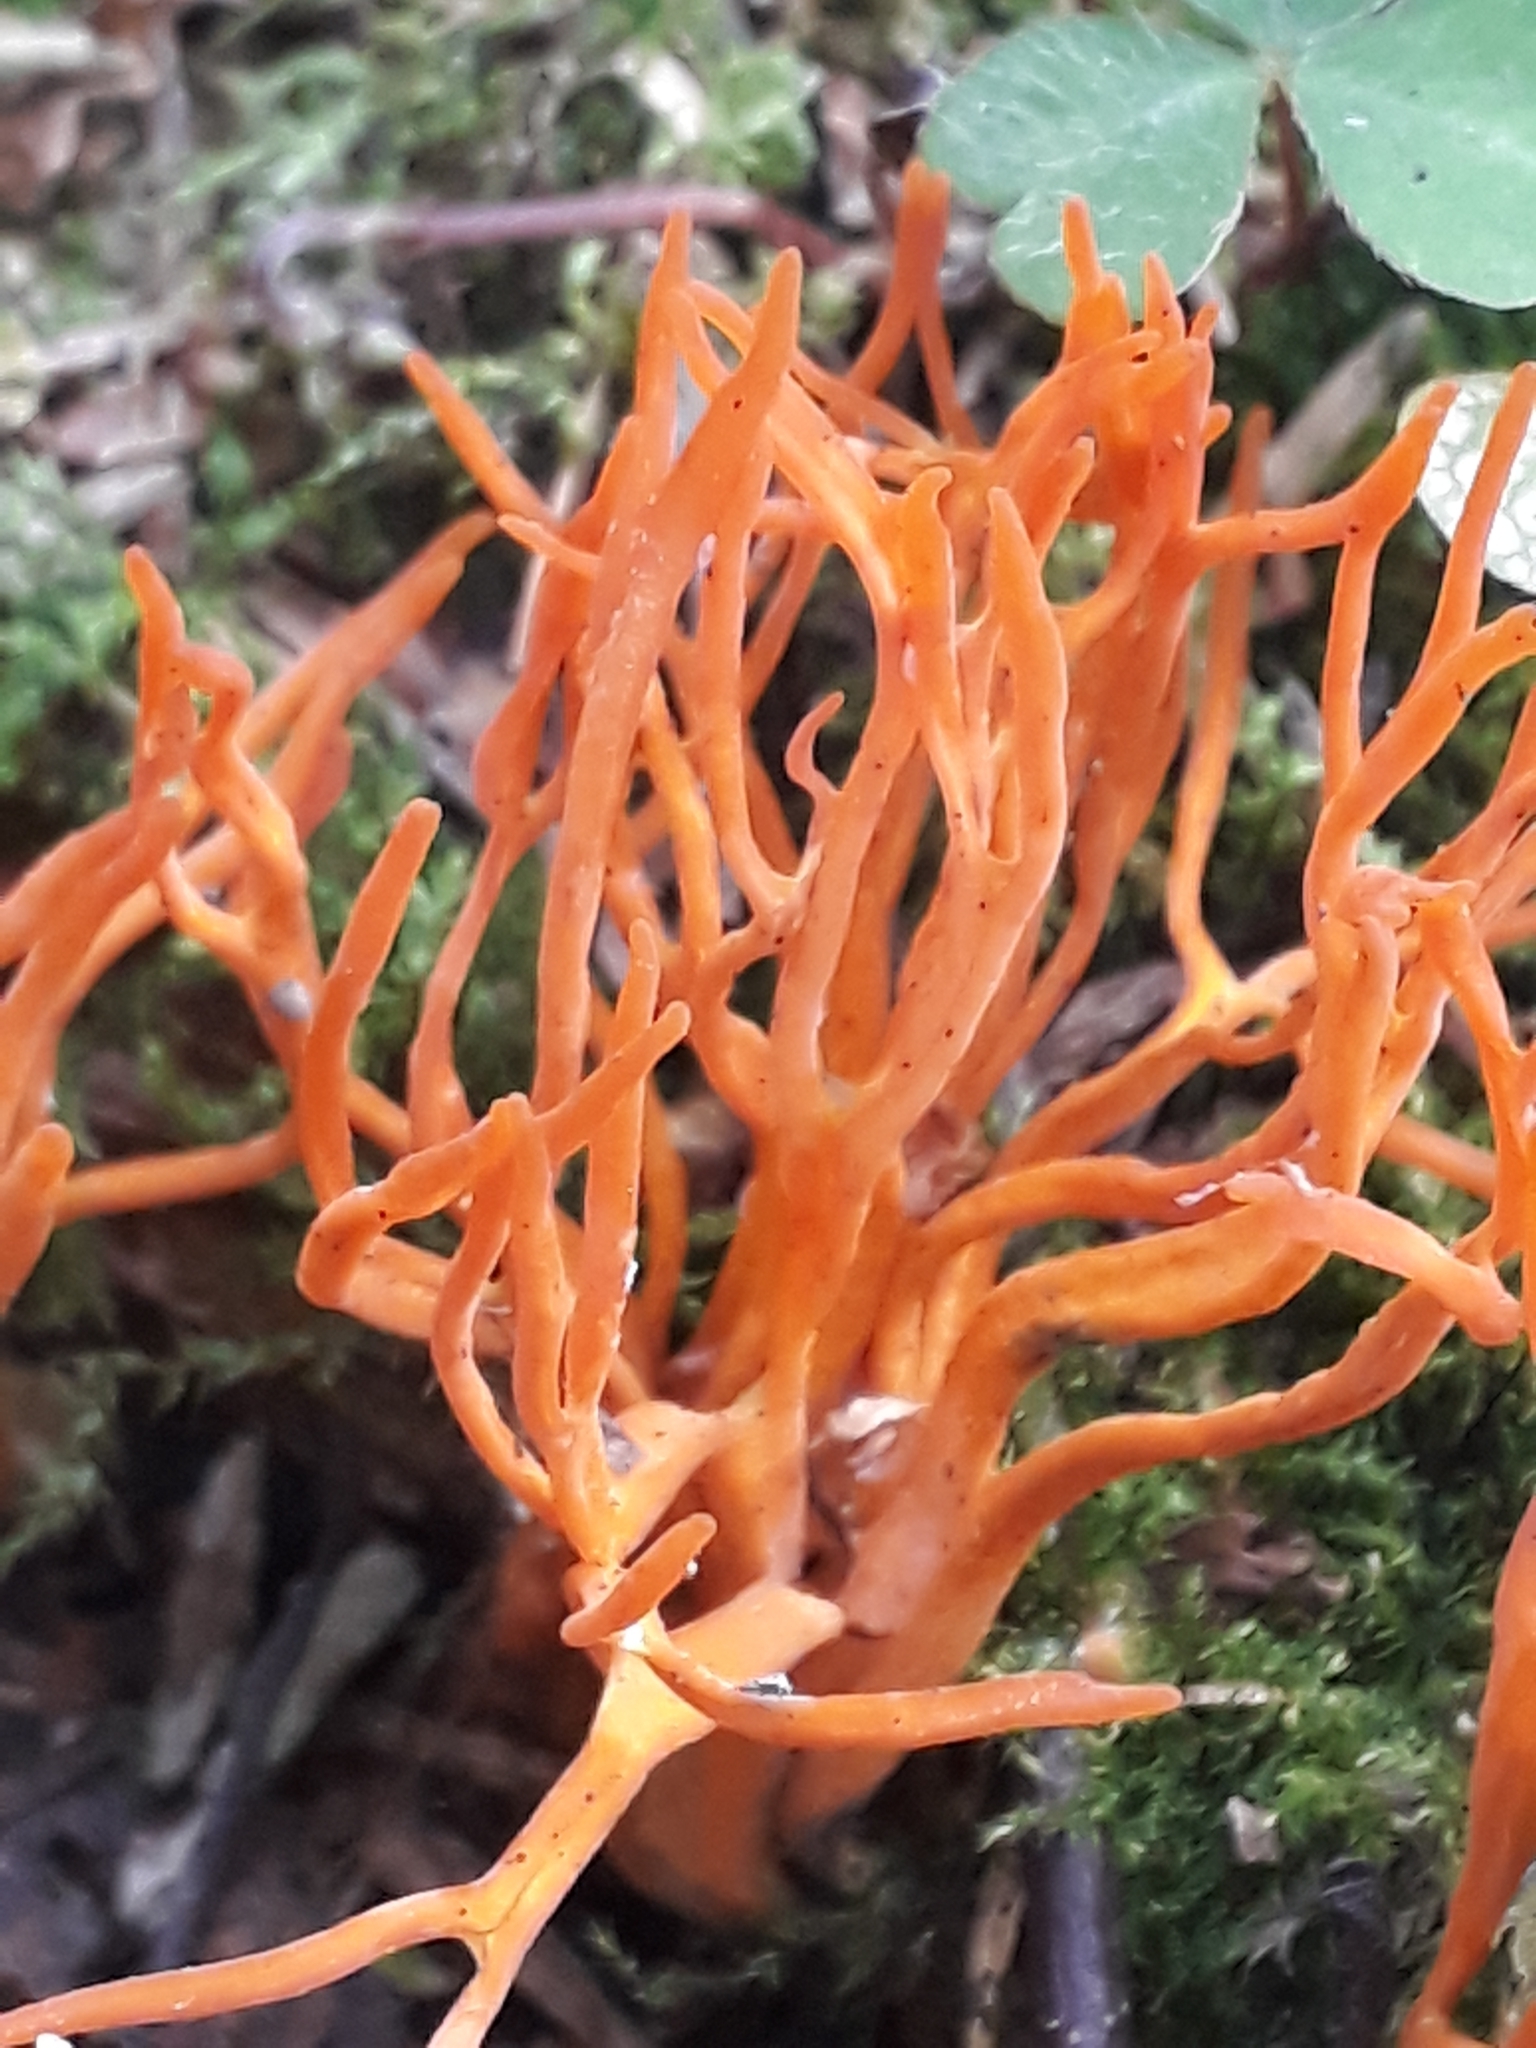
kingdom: Fungi
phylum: Basidiomycota
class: Dacrymycetes
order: Dacrymycetales
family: Dacrymycetaceae
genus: Calocera
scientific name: Calocera viscosa
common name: Yellow stagshorn
